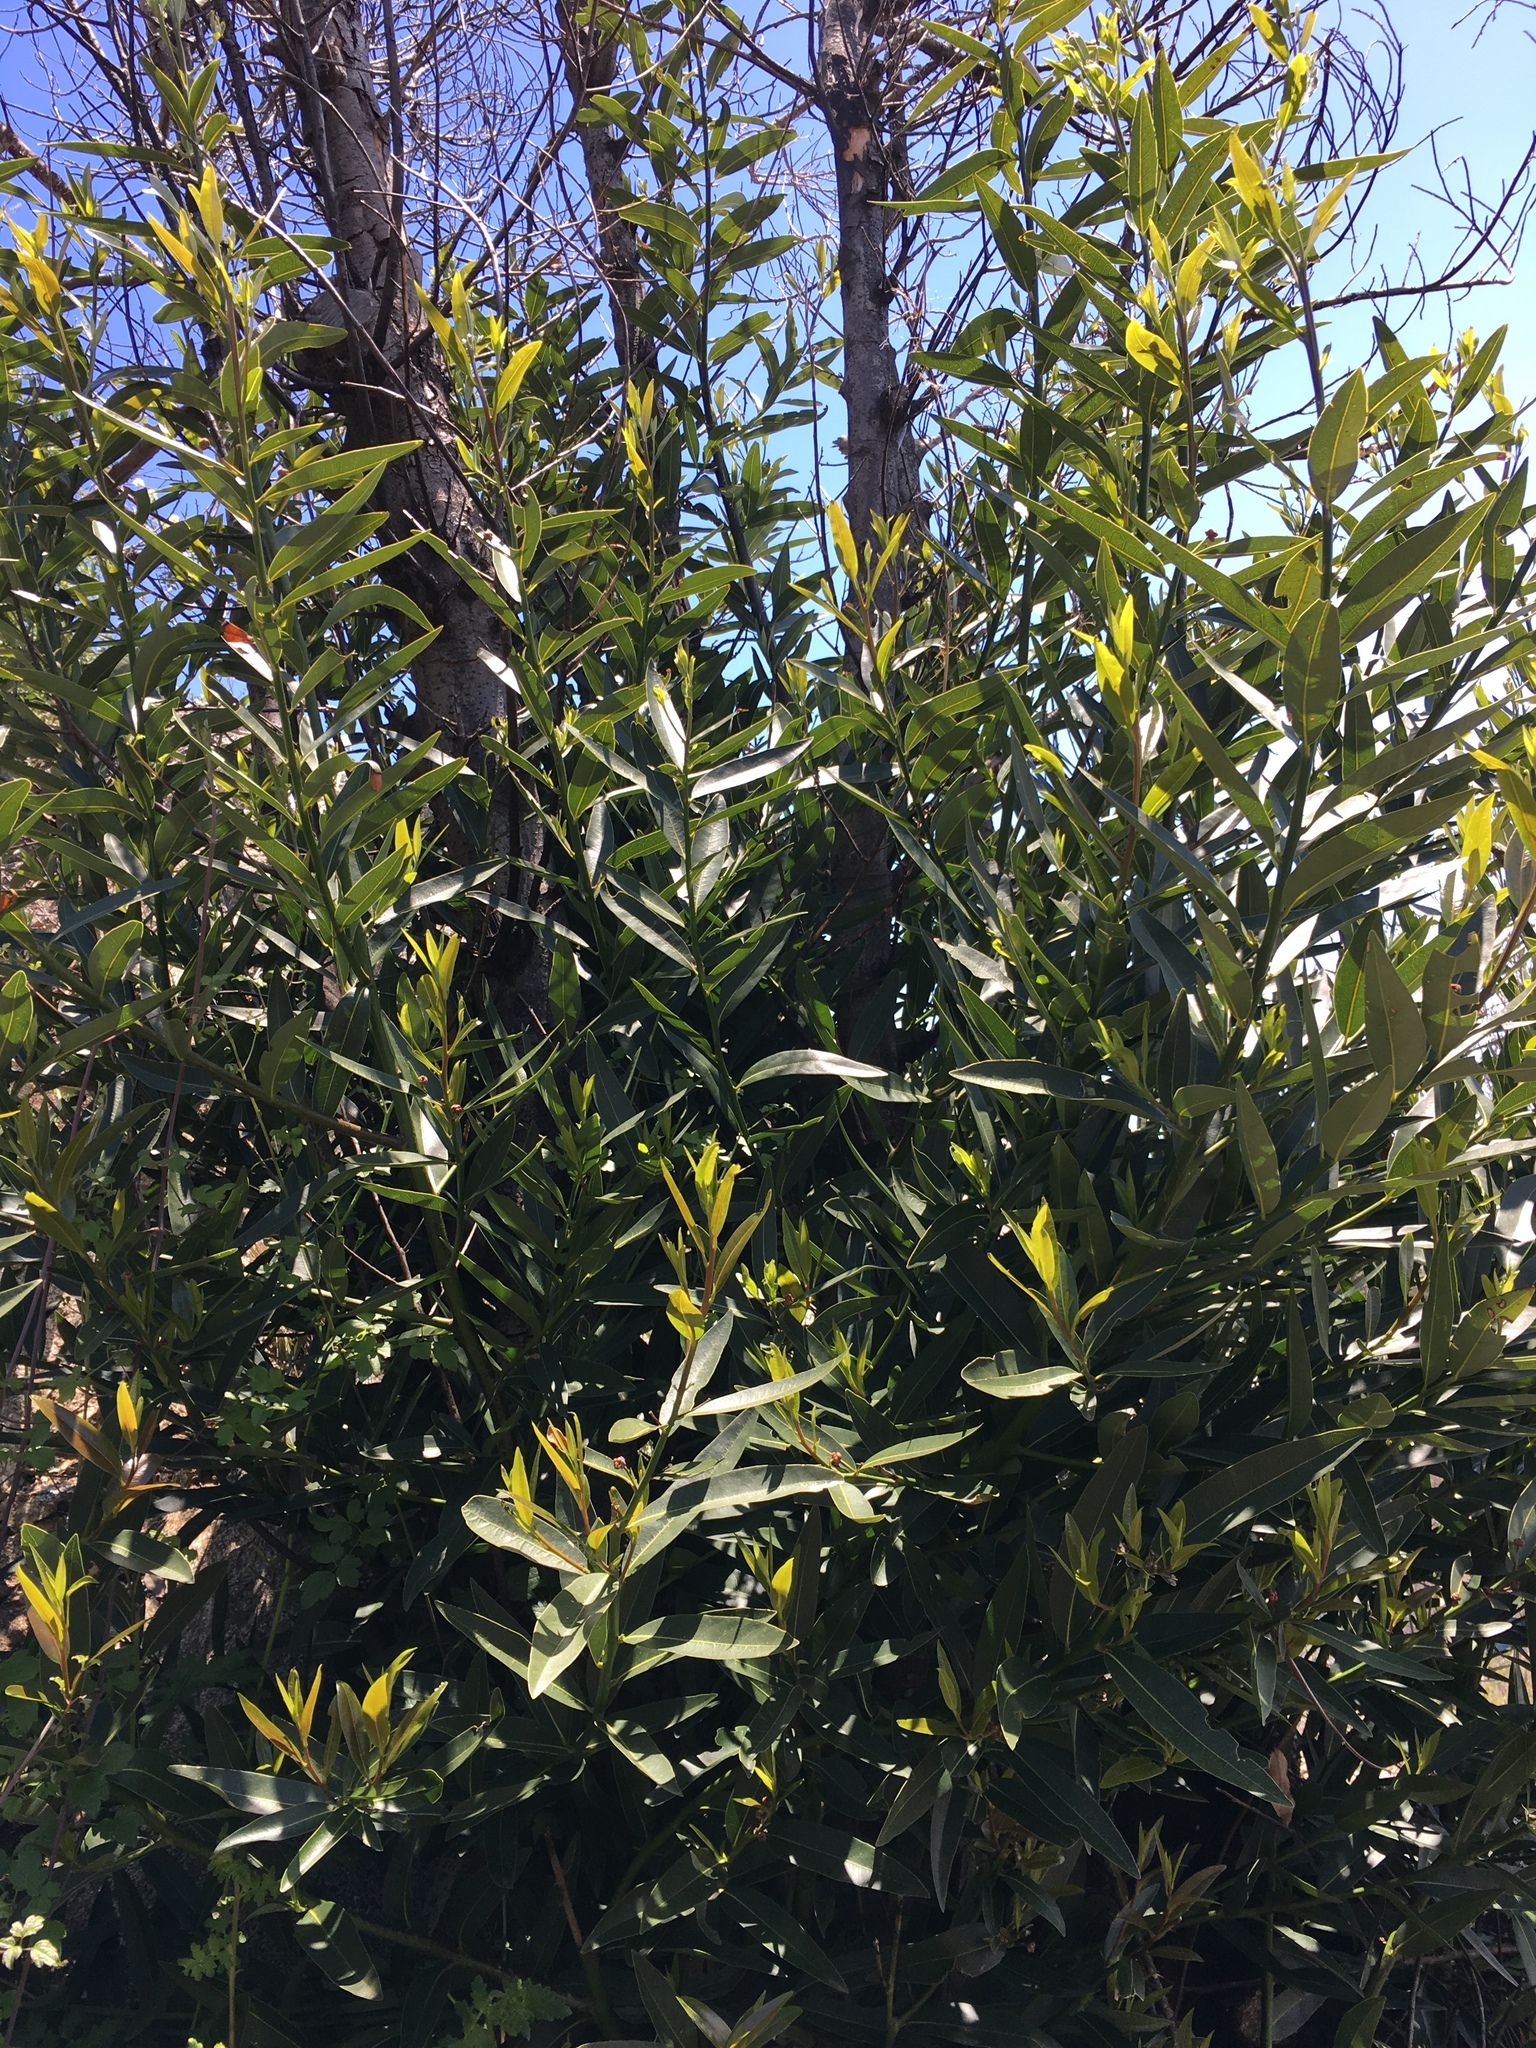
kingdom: Plantae
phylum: Tracheophyta
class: Magnoliopsida
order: Laurales
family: Lauraceae
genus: Umbellularia
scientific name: Umbellularia californica
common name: California bay
